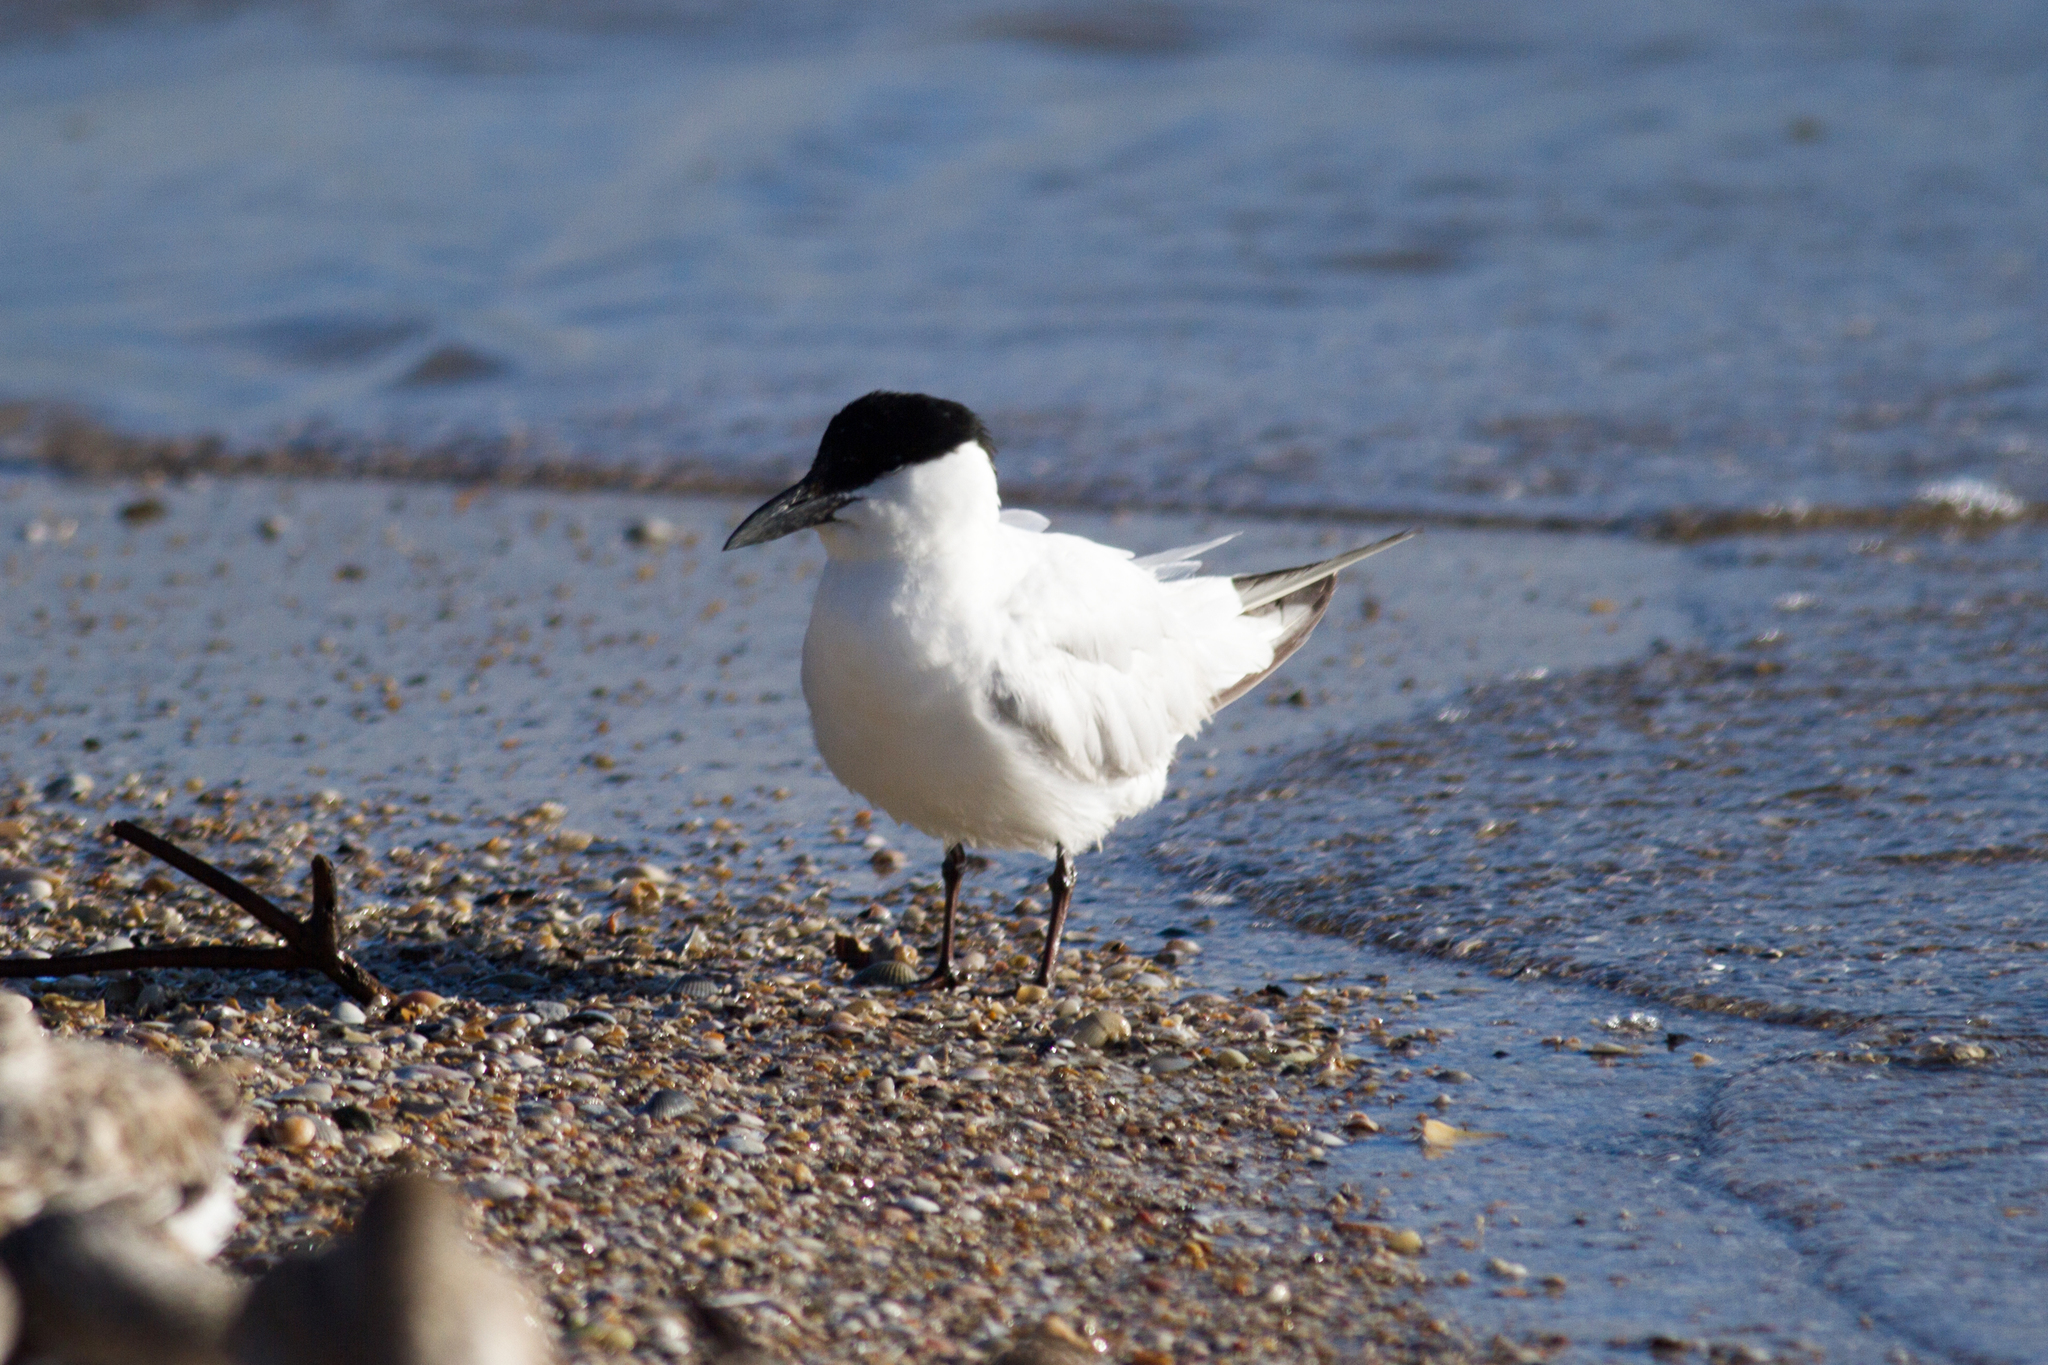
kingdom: Animalia
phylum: Chordata
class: Aves
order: Charadriiformes
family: Laridae
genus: Gelochelidon
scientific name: Gelochelidon macrotarsa
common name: Australian tern
